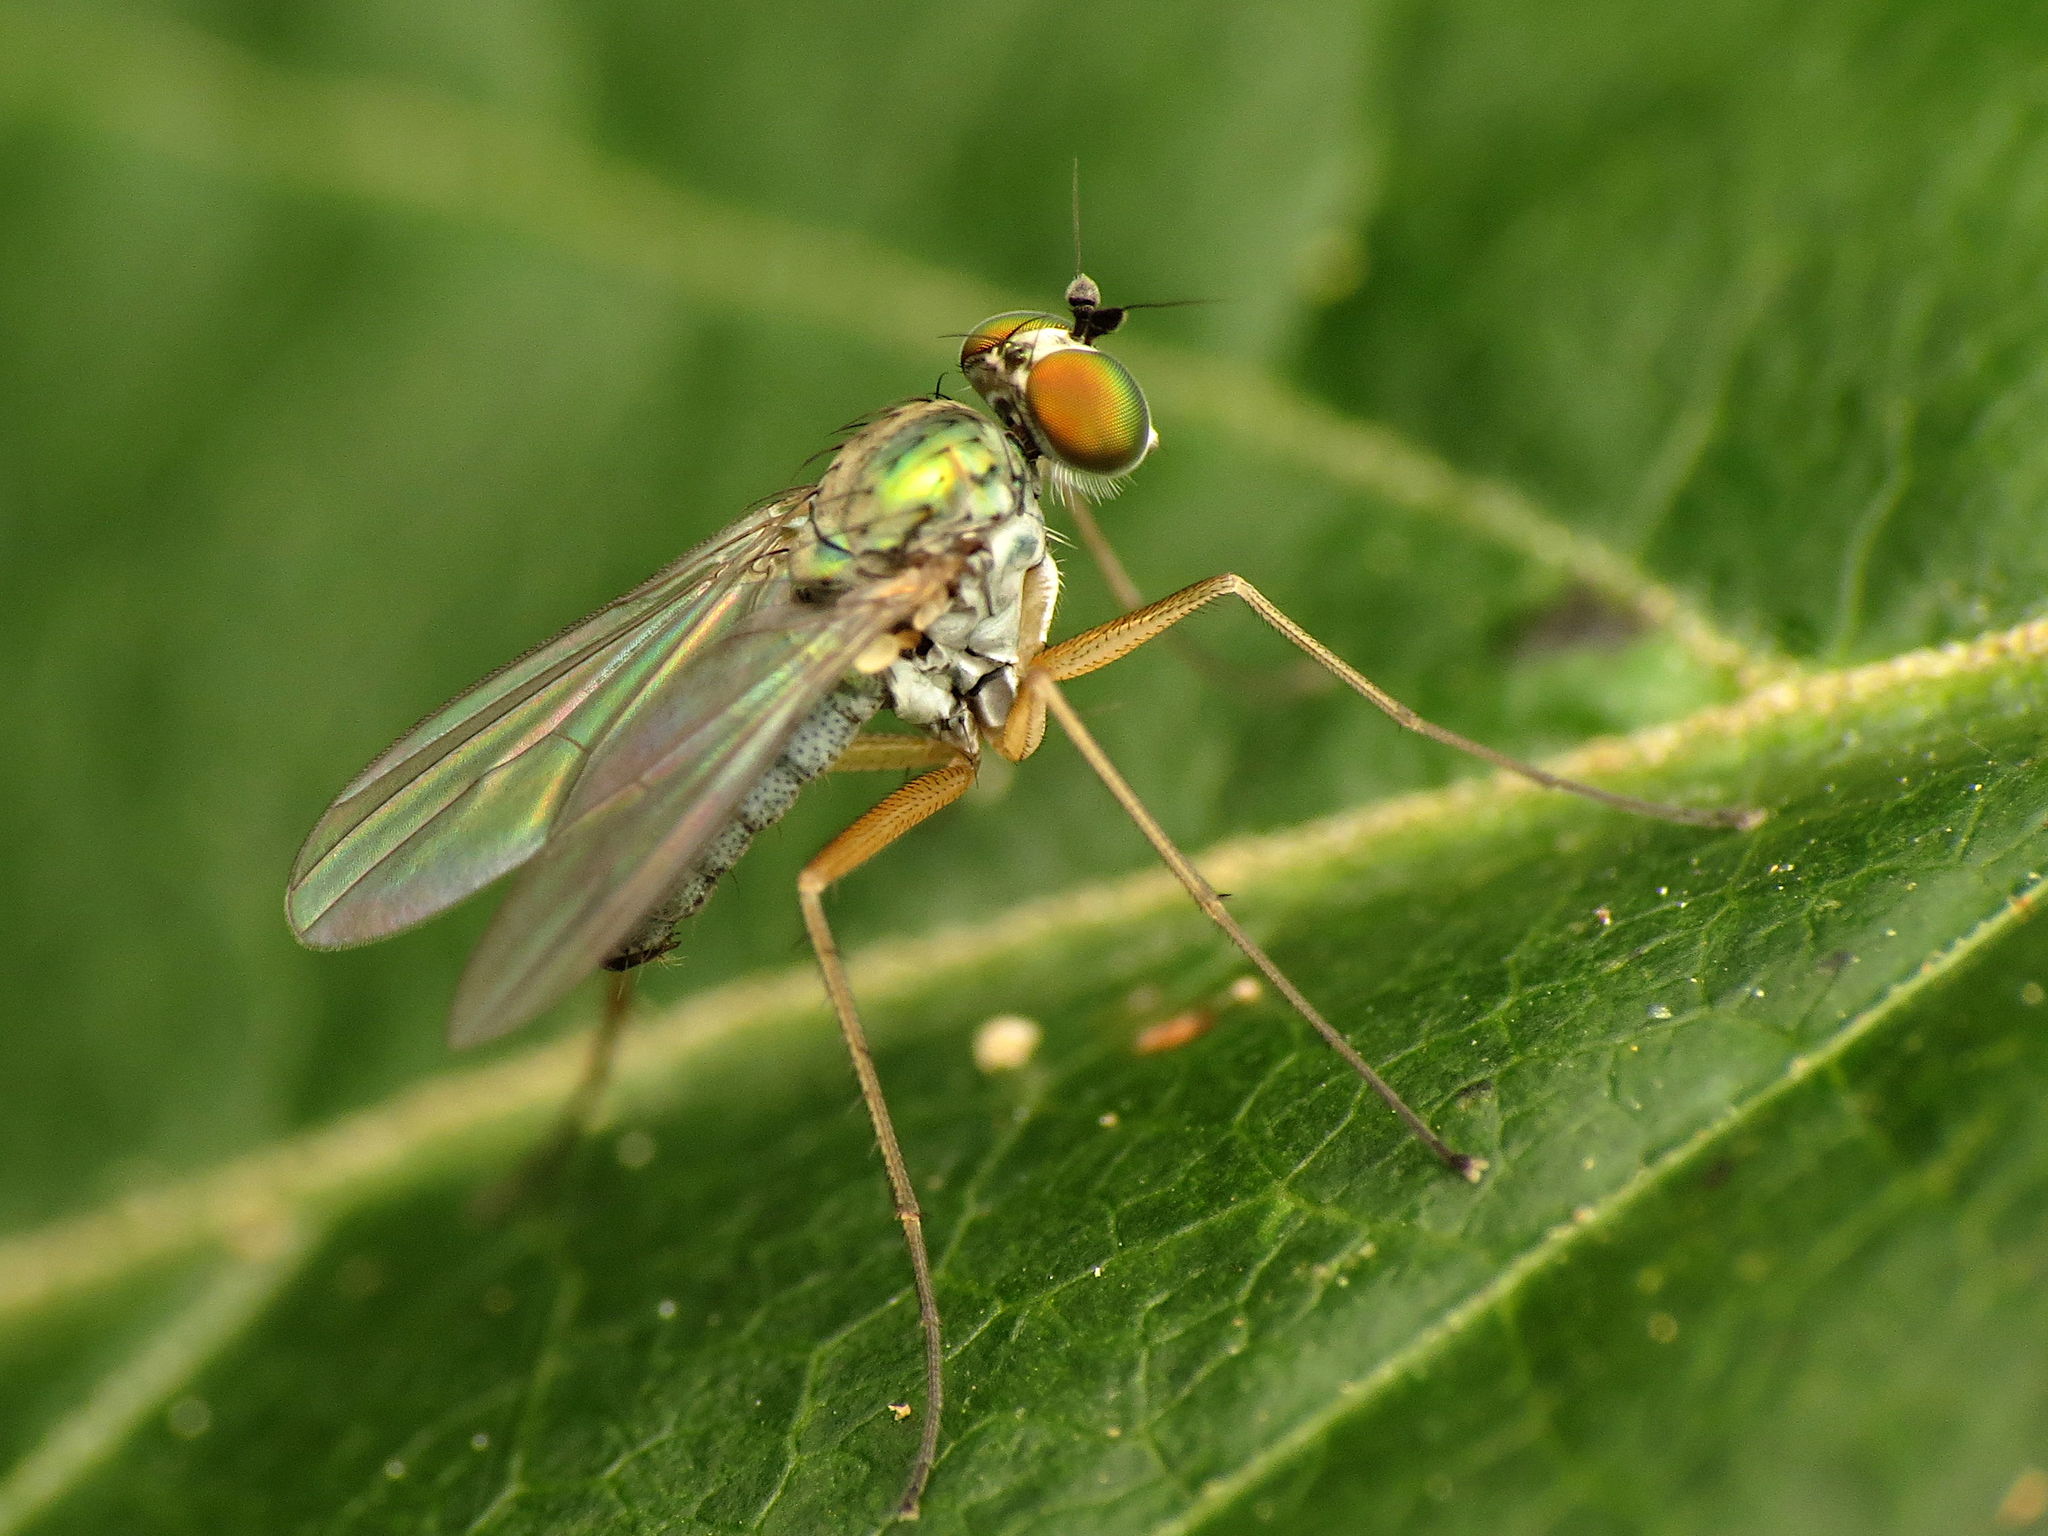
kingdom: Animalia
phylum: Arthropoda
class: Insecta
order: Diptera
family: Dolichopodidae
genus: Chrysotus
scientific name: Chrysotus
